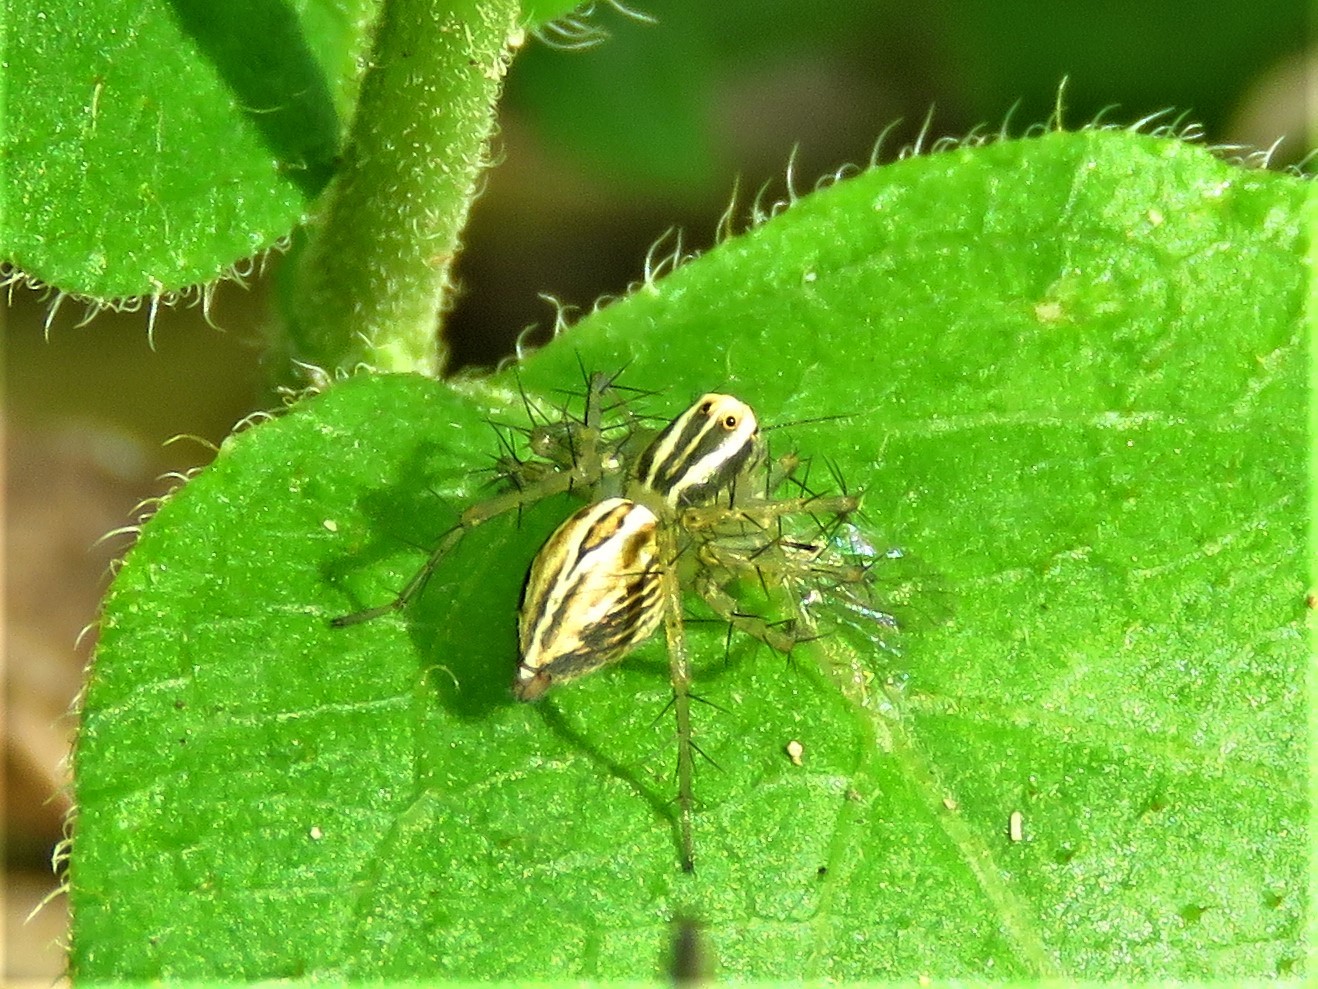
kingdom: Animalia
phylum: Arthropoda
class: Arachnida
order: Araneae
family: Oxyopidae
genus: Oxyopes
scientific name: Oxyopes salticus
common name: Lynx spiders
